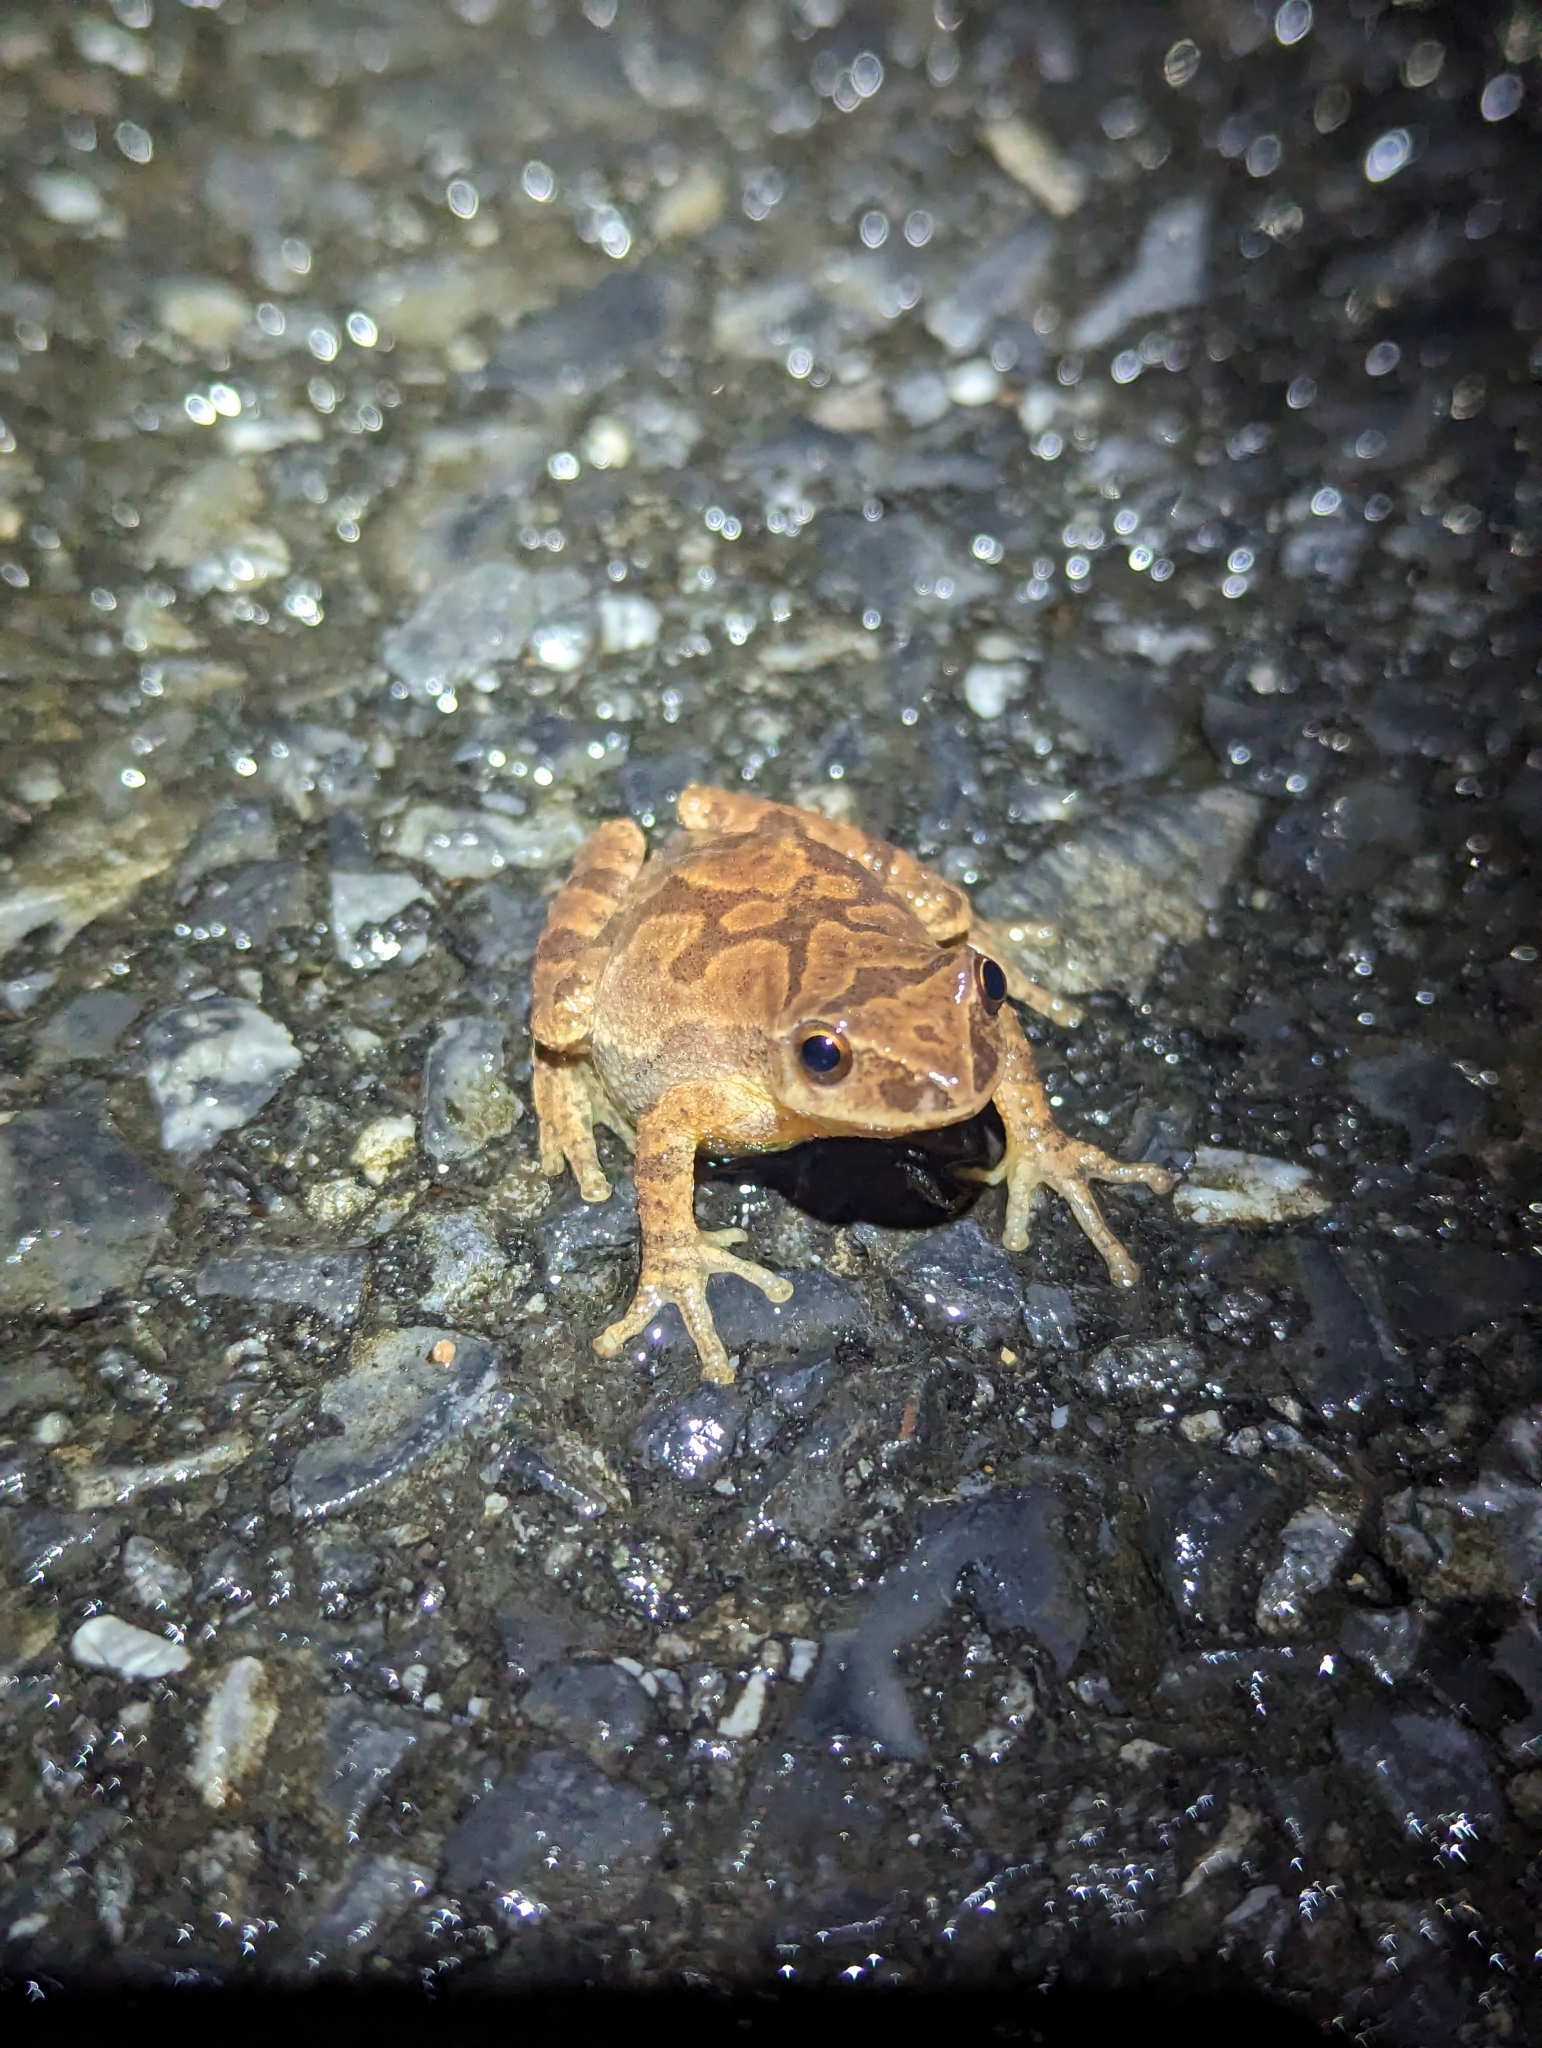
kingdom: Animalia
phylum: Chordata
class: Amphibia
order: Anura
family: Hylidae
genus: Pseudacris
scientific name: Pseudacris crucifer
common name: Spring peeper
